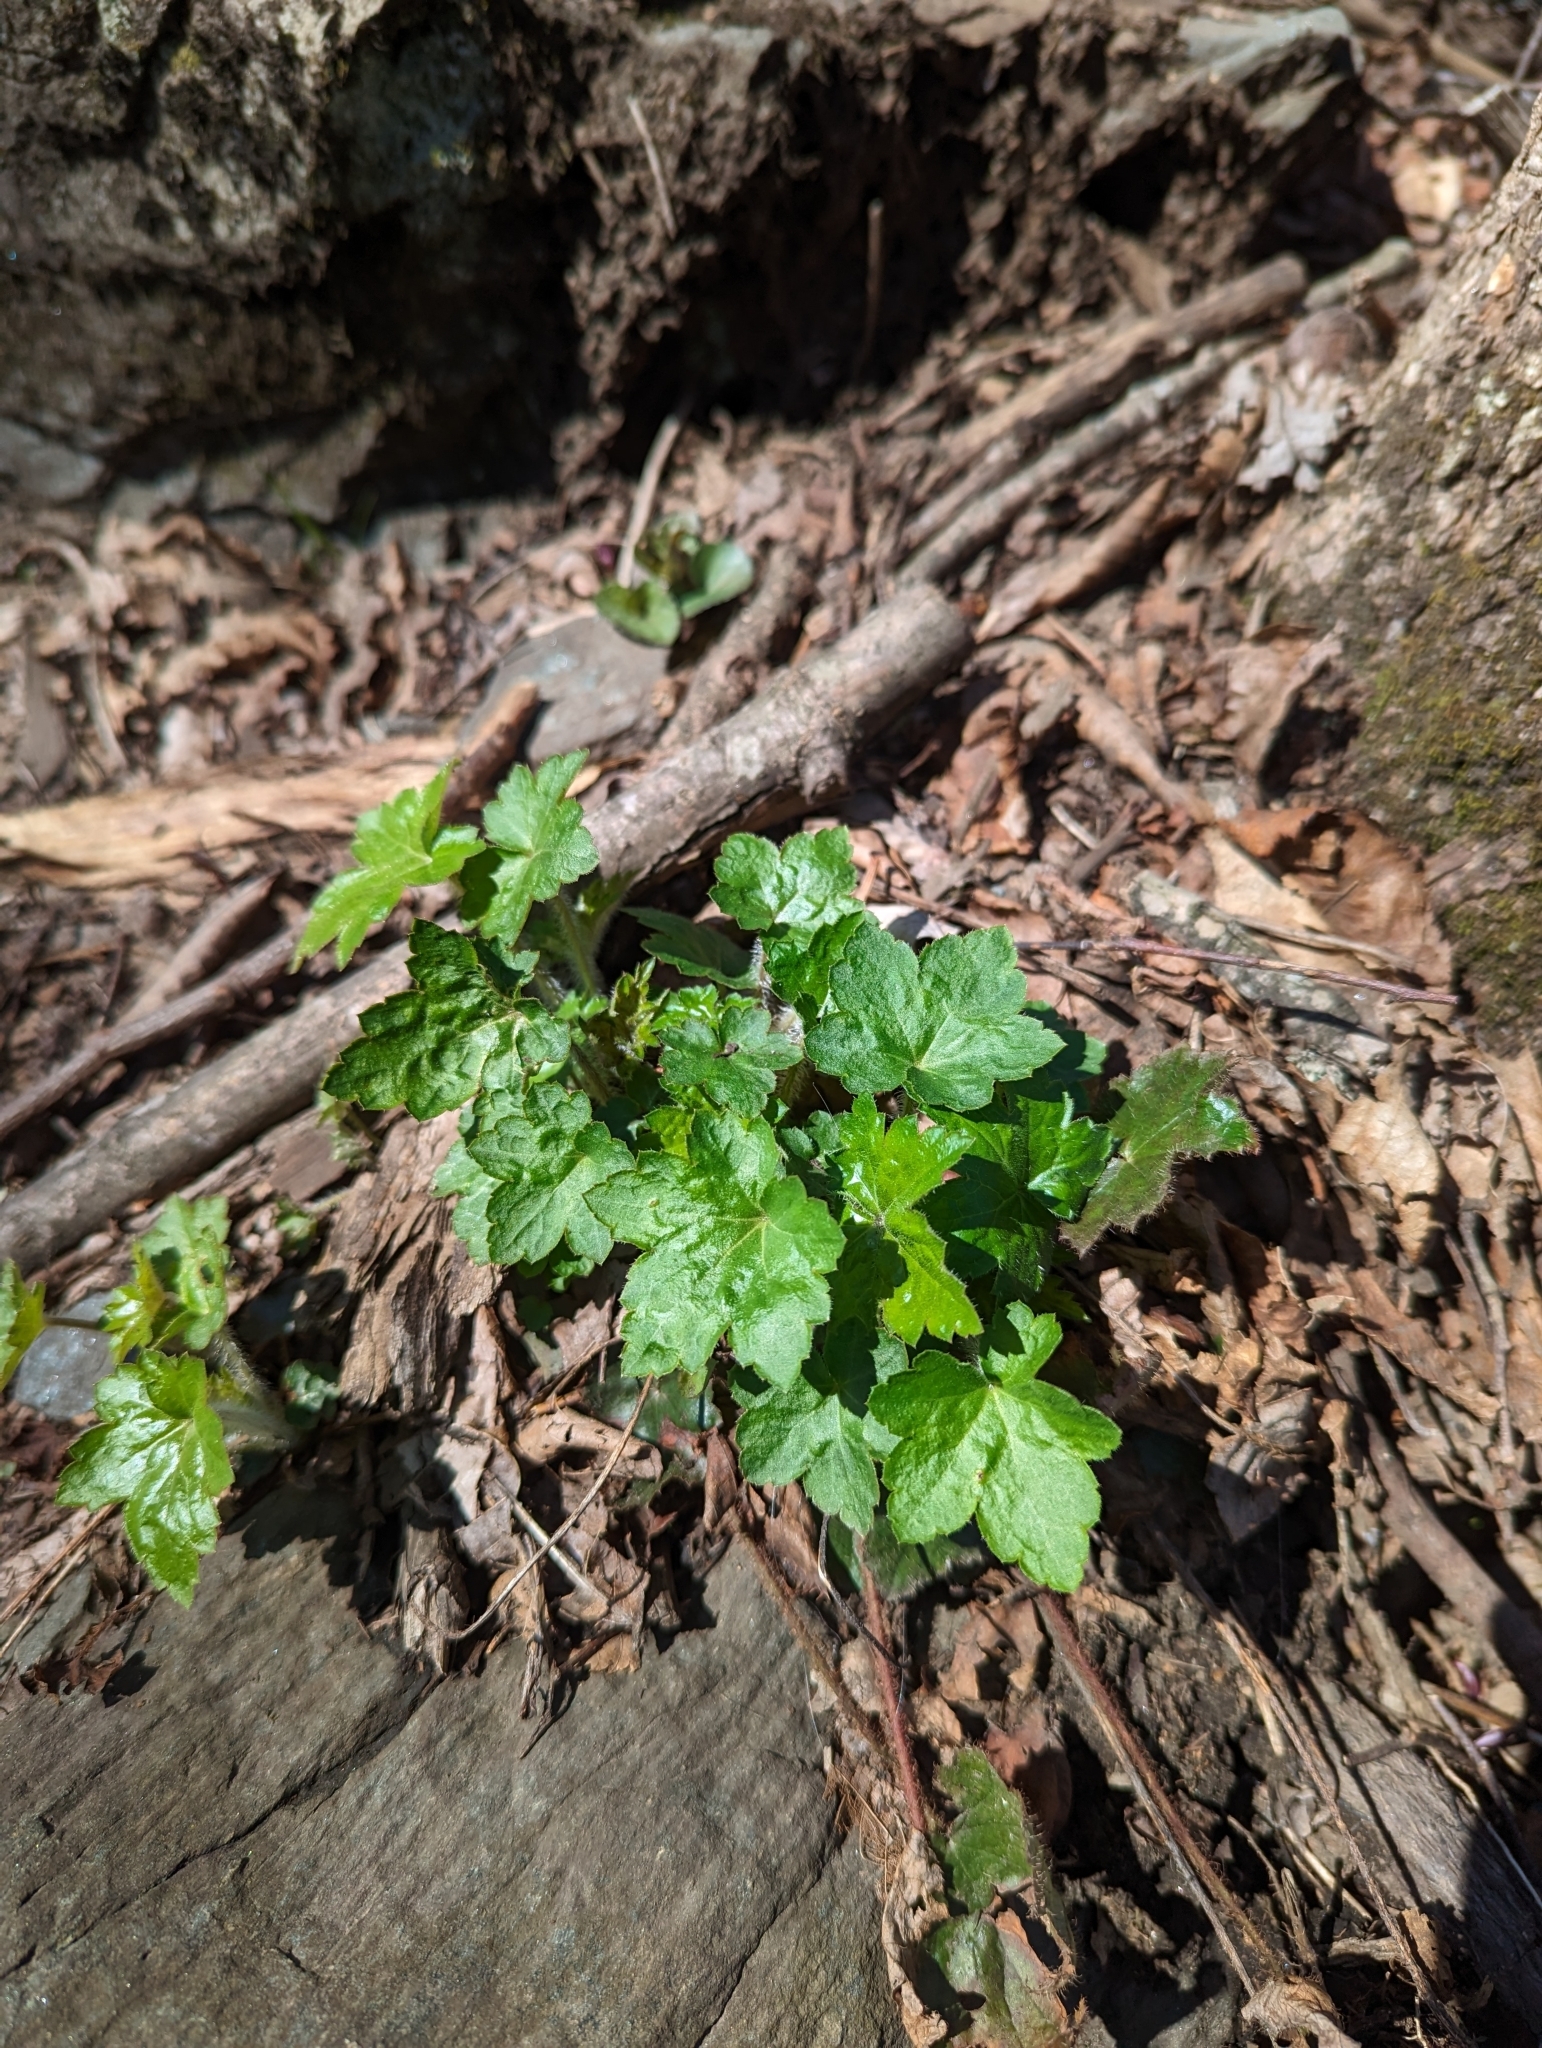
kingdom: Plantae
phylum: Tracheophyta
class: Magnoliopsida
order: Saxifragales
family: Saxifragaceae
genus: Heuchera
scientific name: Heuchera americana
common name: Alumroot
